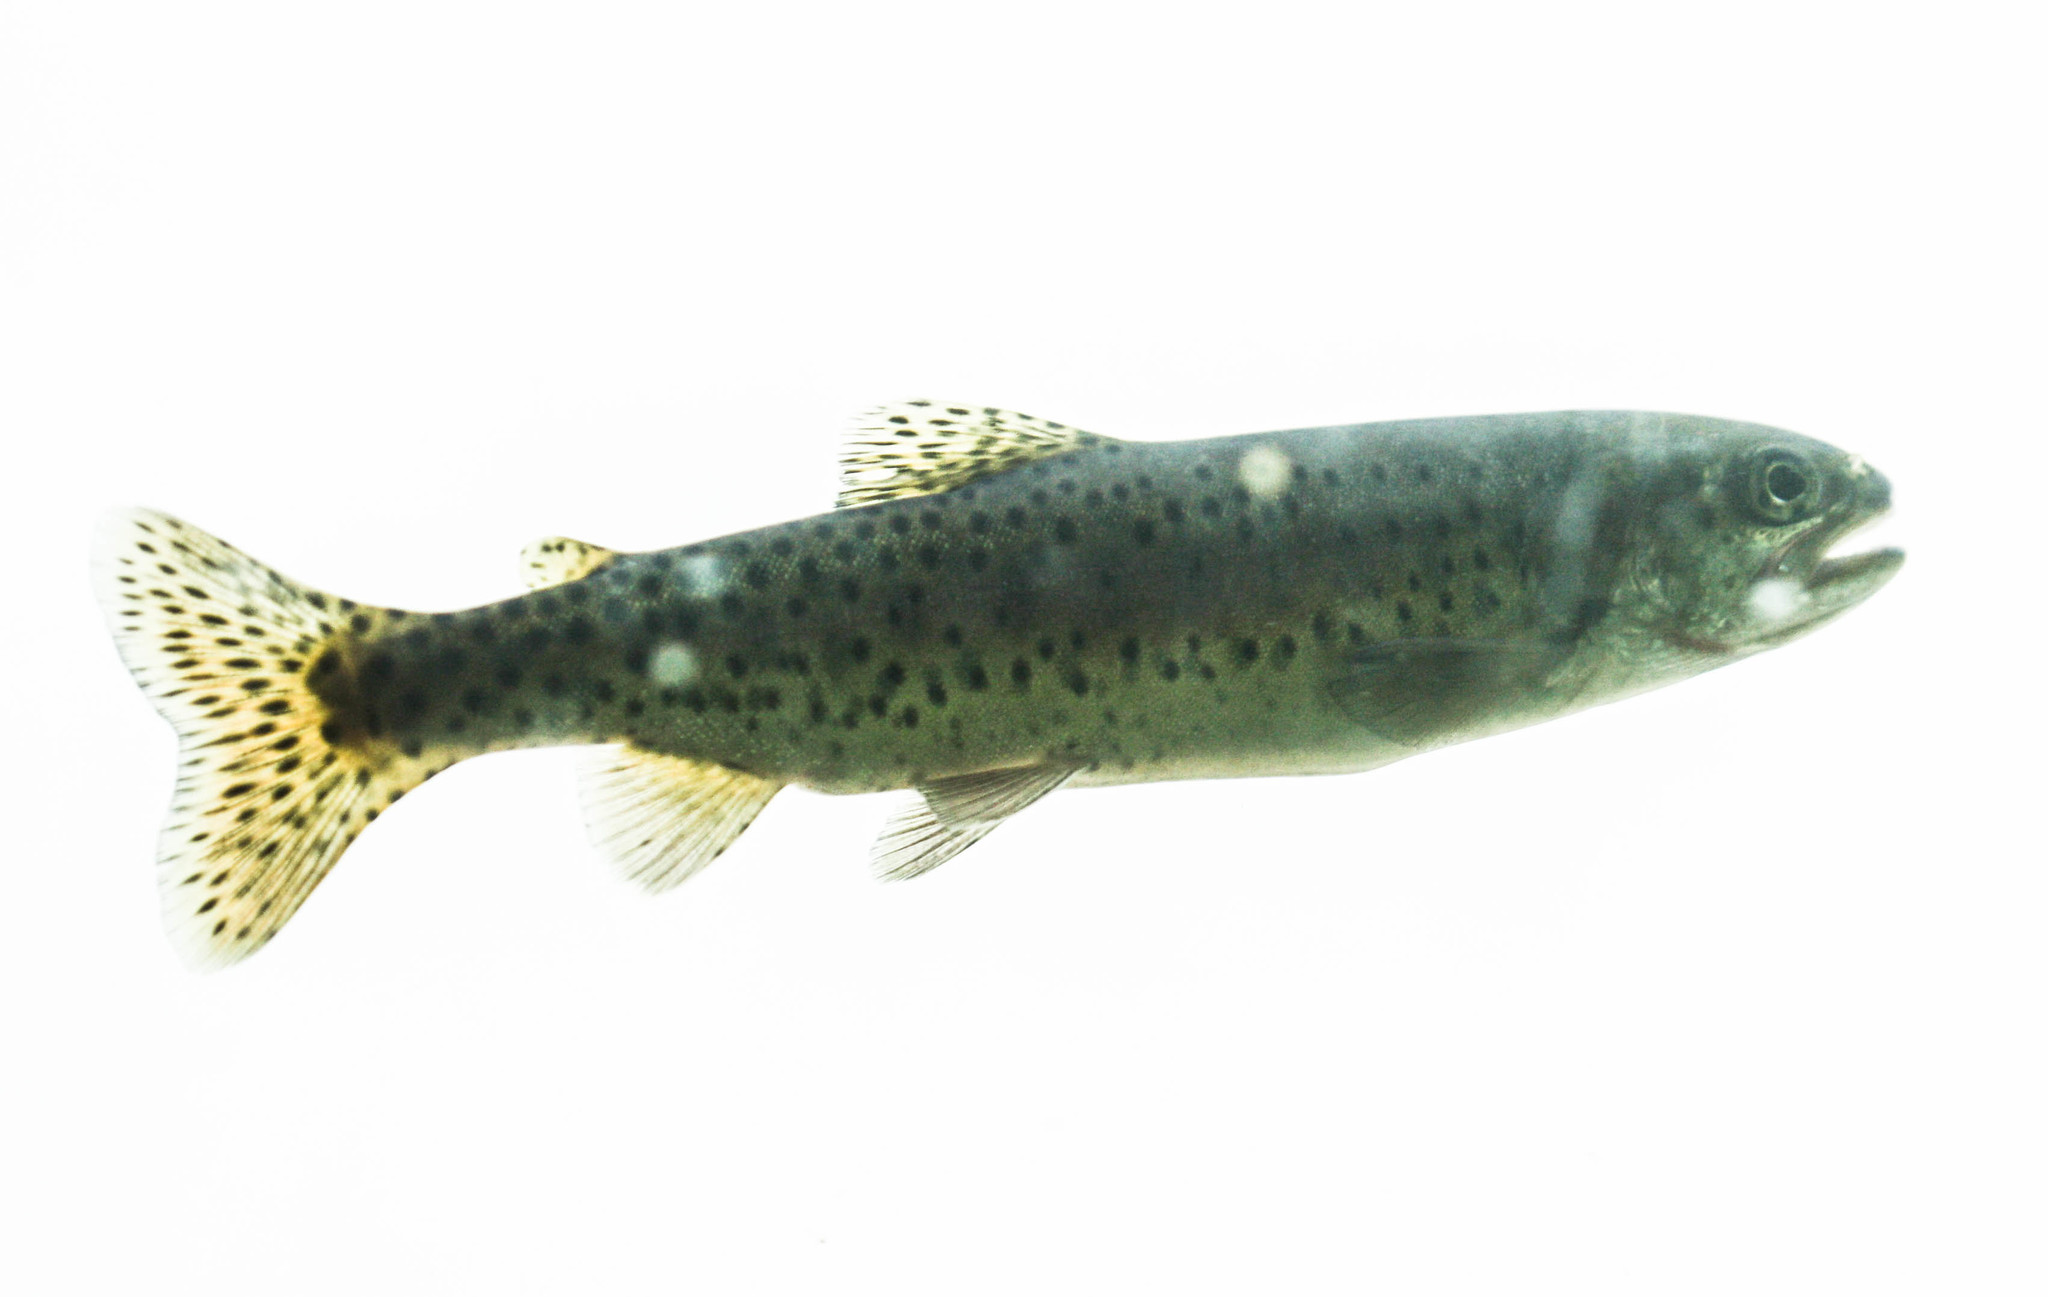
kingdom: Animalia
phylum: Chordata
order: Salmoniformes
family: Salmonidae
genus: Oncorhynchus
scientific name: Oncorhynchus henshawi
